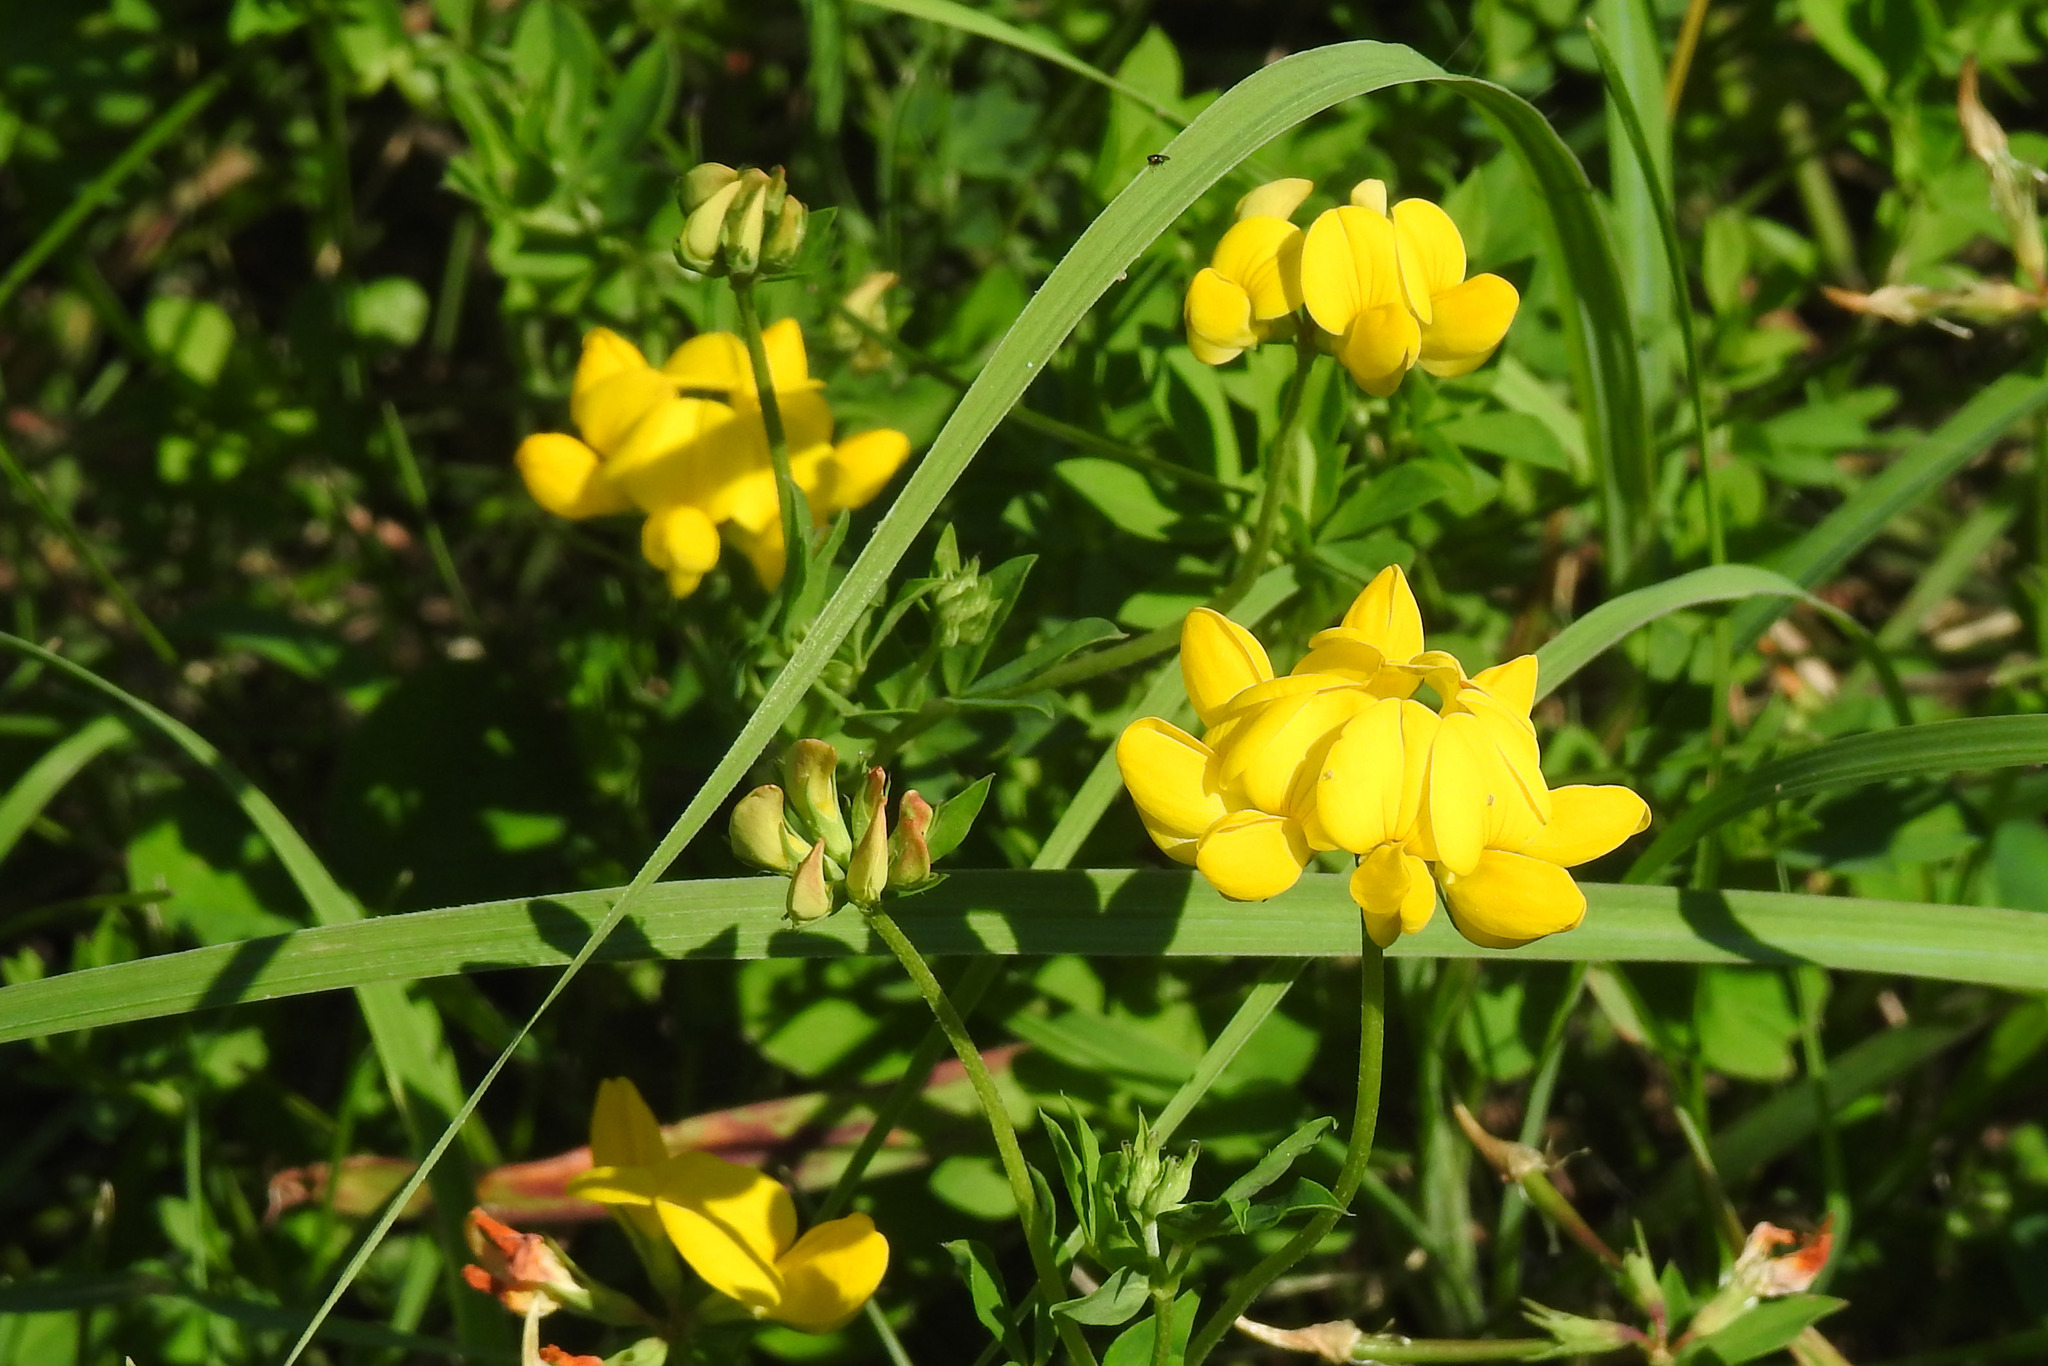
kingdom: Plantae
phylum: Tracheophyta
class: Magnoliopsida
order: Fabales
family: Fabaceae
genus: Lotus
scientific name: Lotus corniculatus
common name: Common bird's-foot-trefoil
